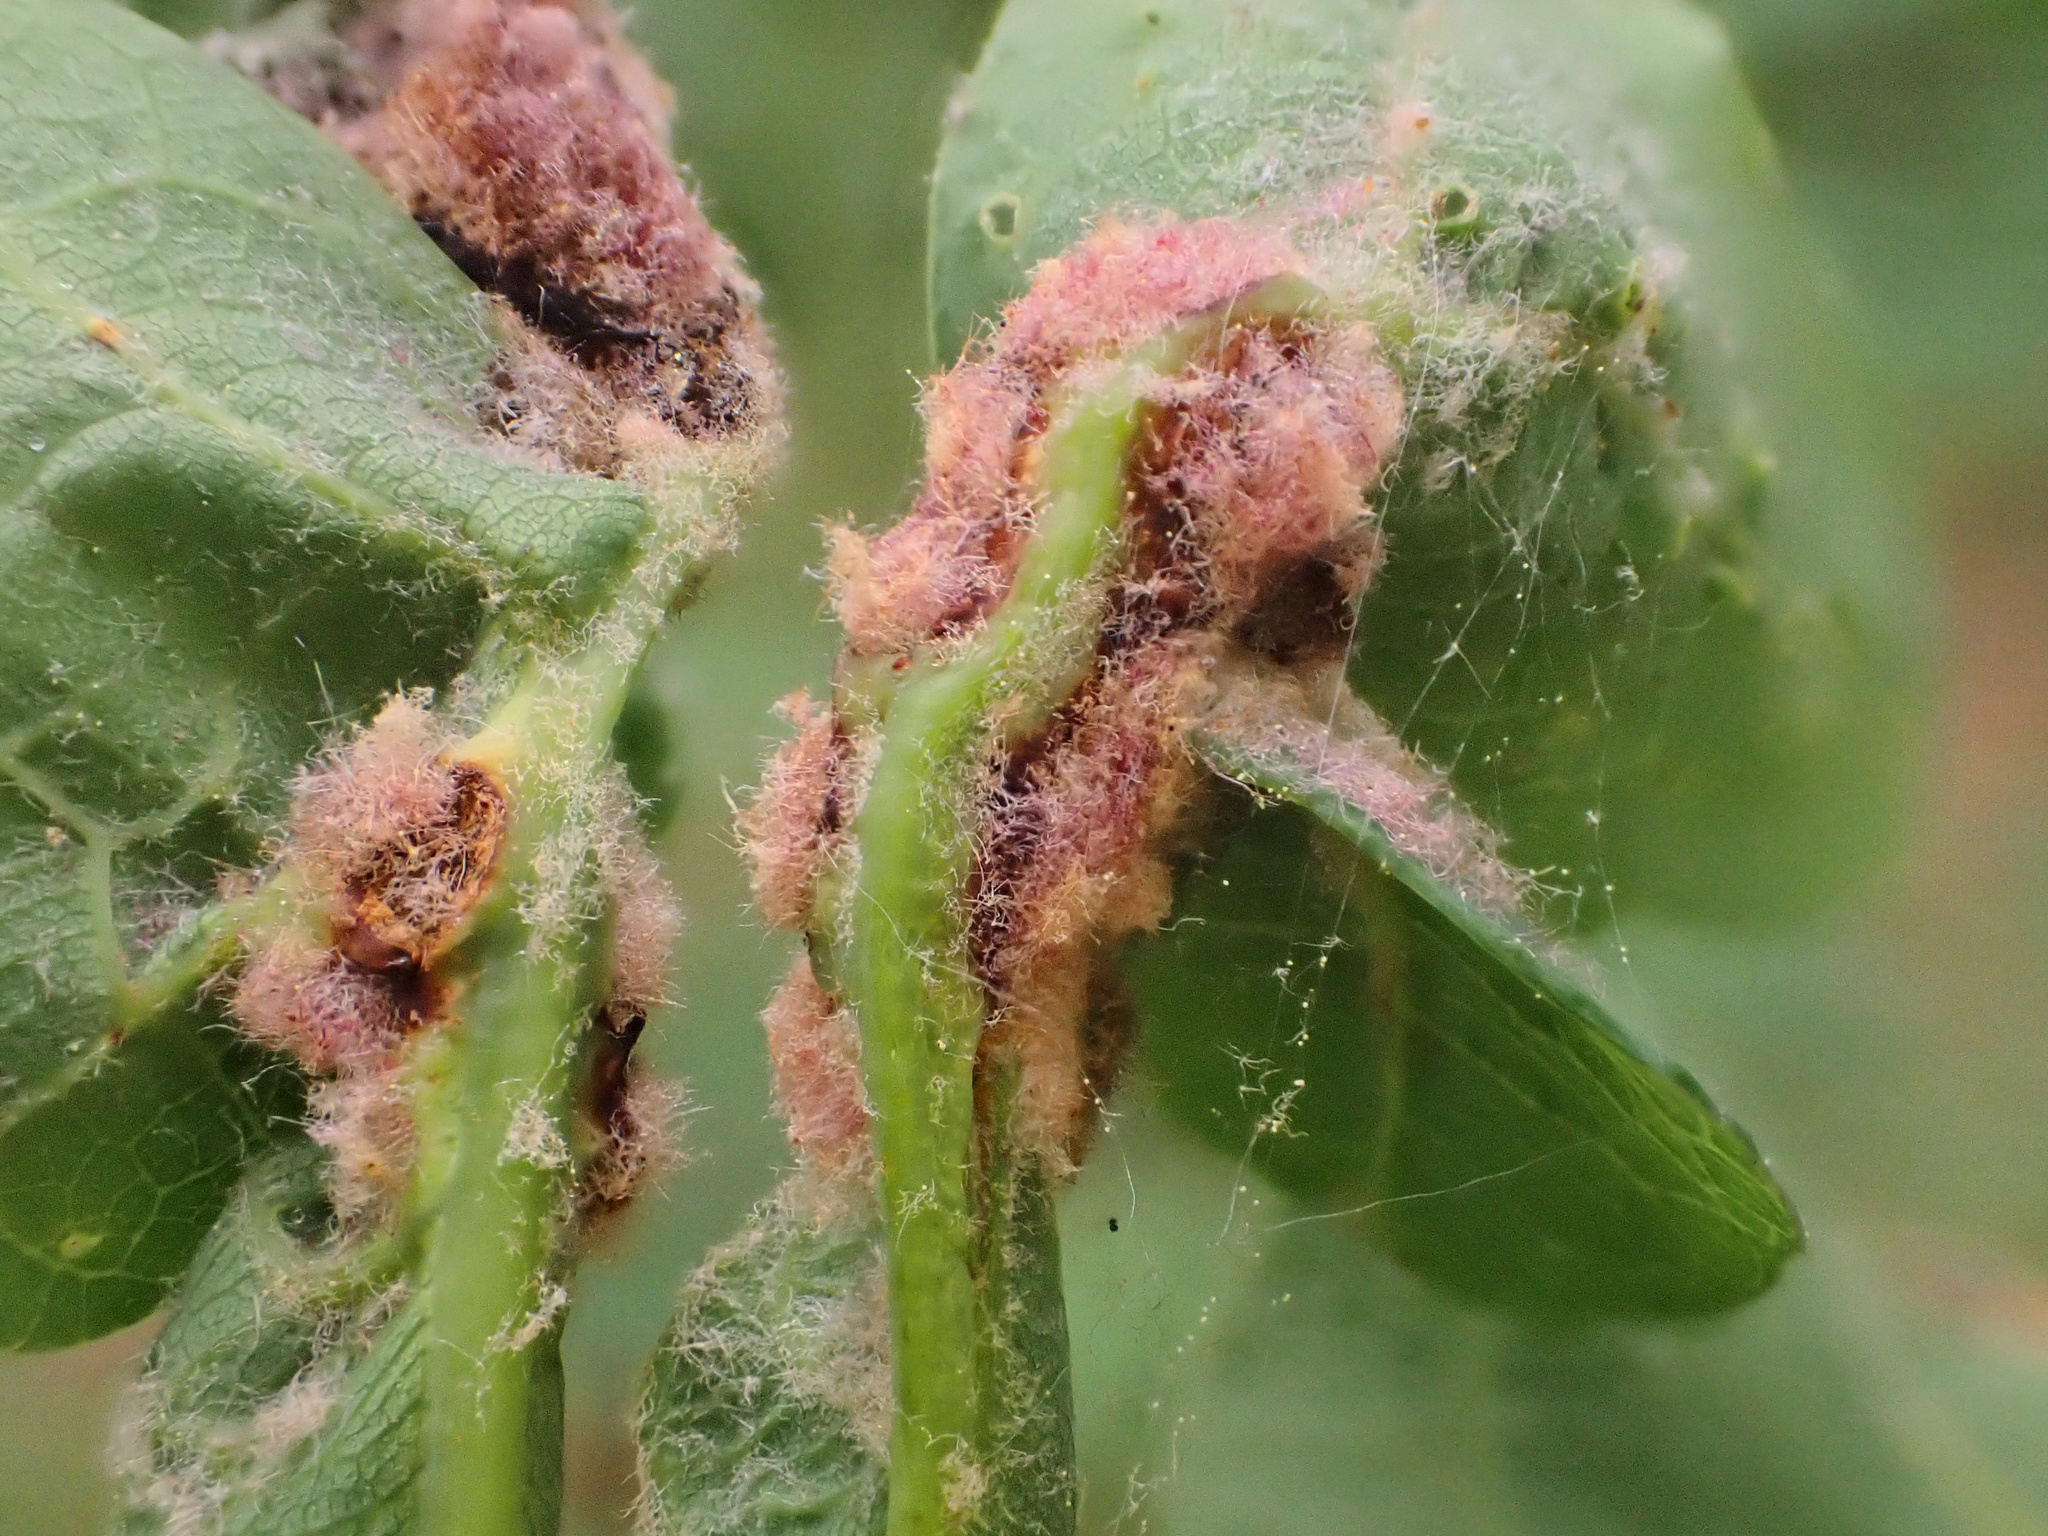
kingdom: Animalia
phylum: Arthropoda
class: Insecta
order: Diptera
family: Cecidomyiidae
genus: Macrodiplosis
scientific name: Macrodiplosis niveipila
